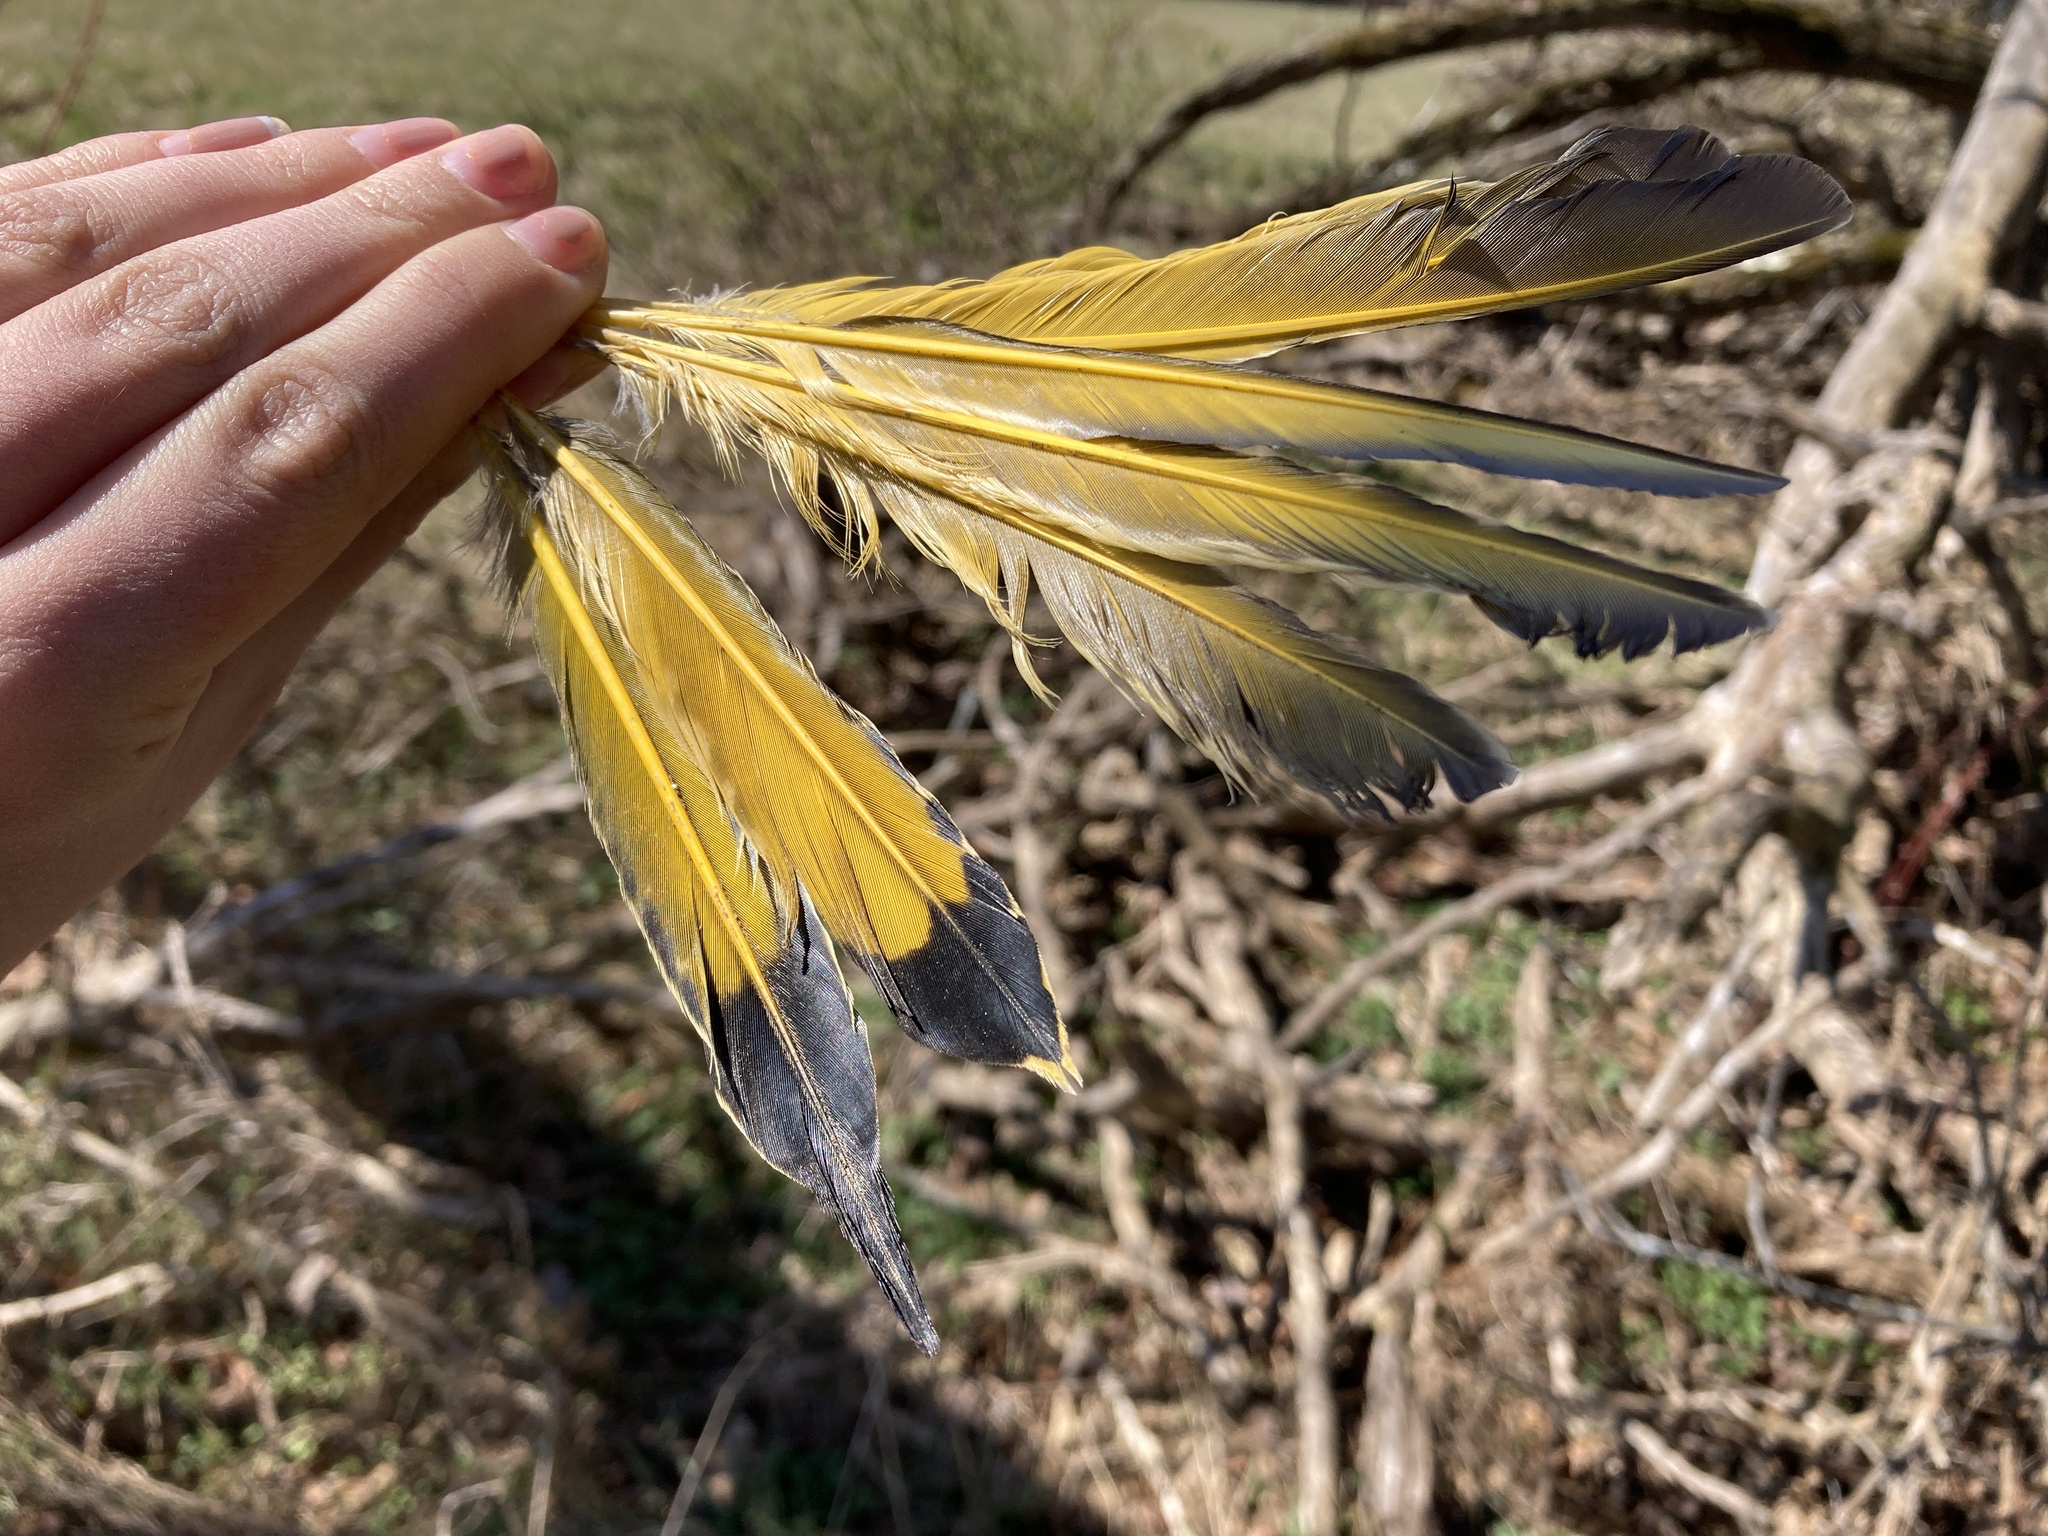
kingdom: Animalia
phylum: Chordata
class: Aves
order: Piciformes
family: Picidae
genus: Colaptes
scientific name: Colaptes auratus
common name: Northern flicker
